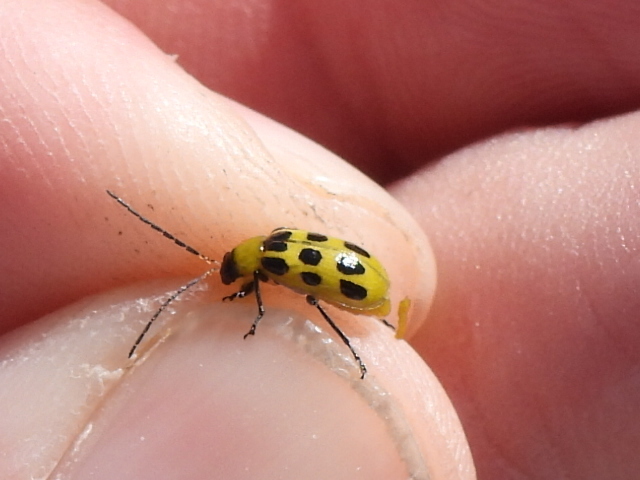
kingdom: Animalia
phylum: Arthropoda
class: Insecta
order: Coleoptera
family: Chrysomelidae
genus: Diabrotica
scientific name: Diabrotica undecimpunctata
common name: Spotted cucumber beetle
